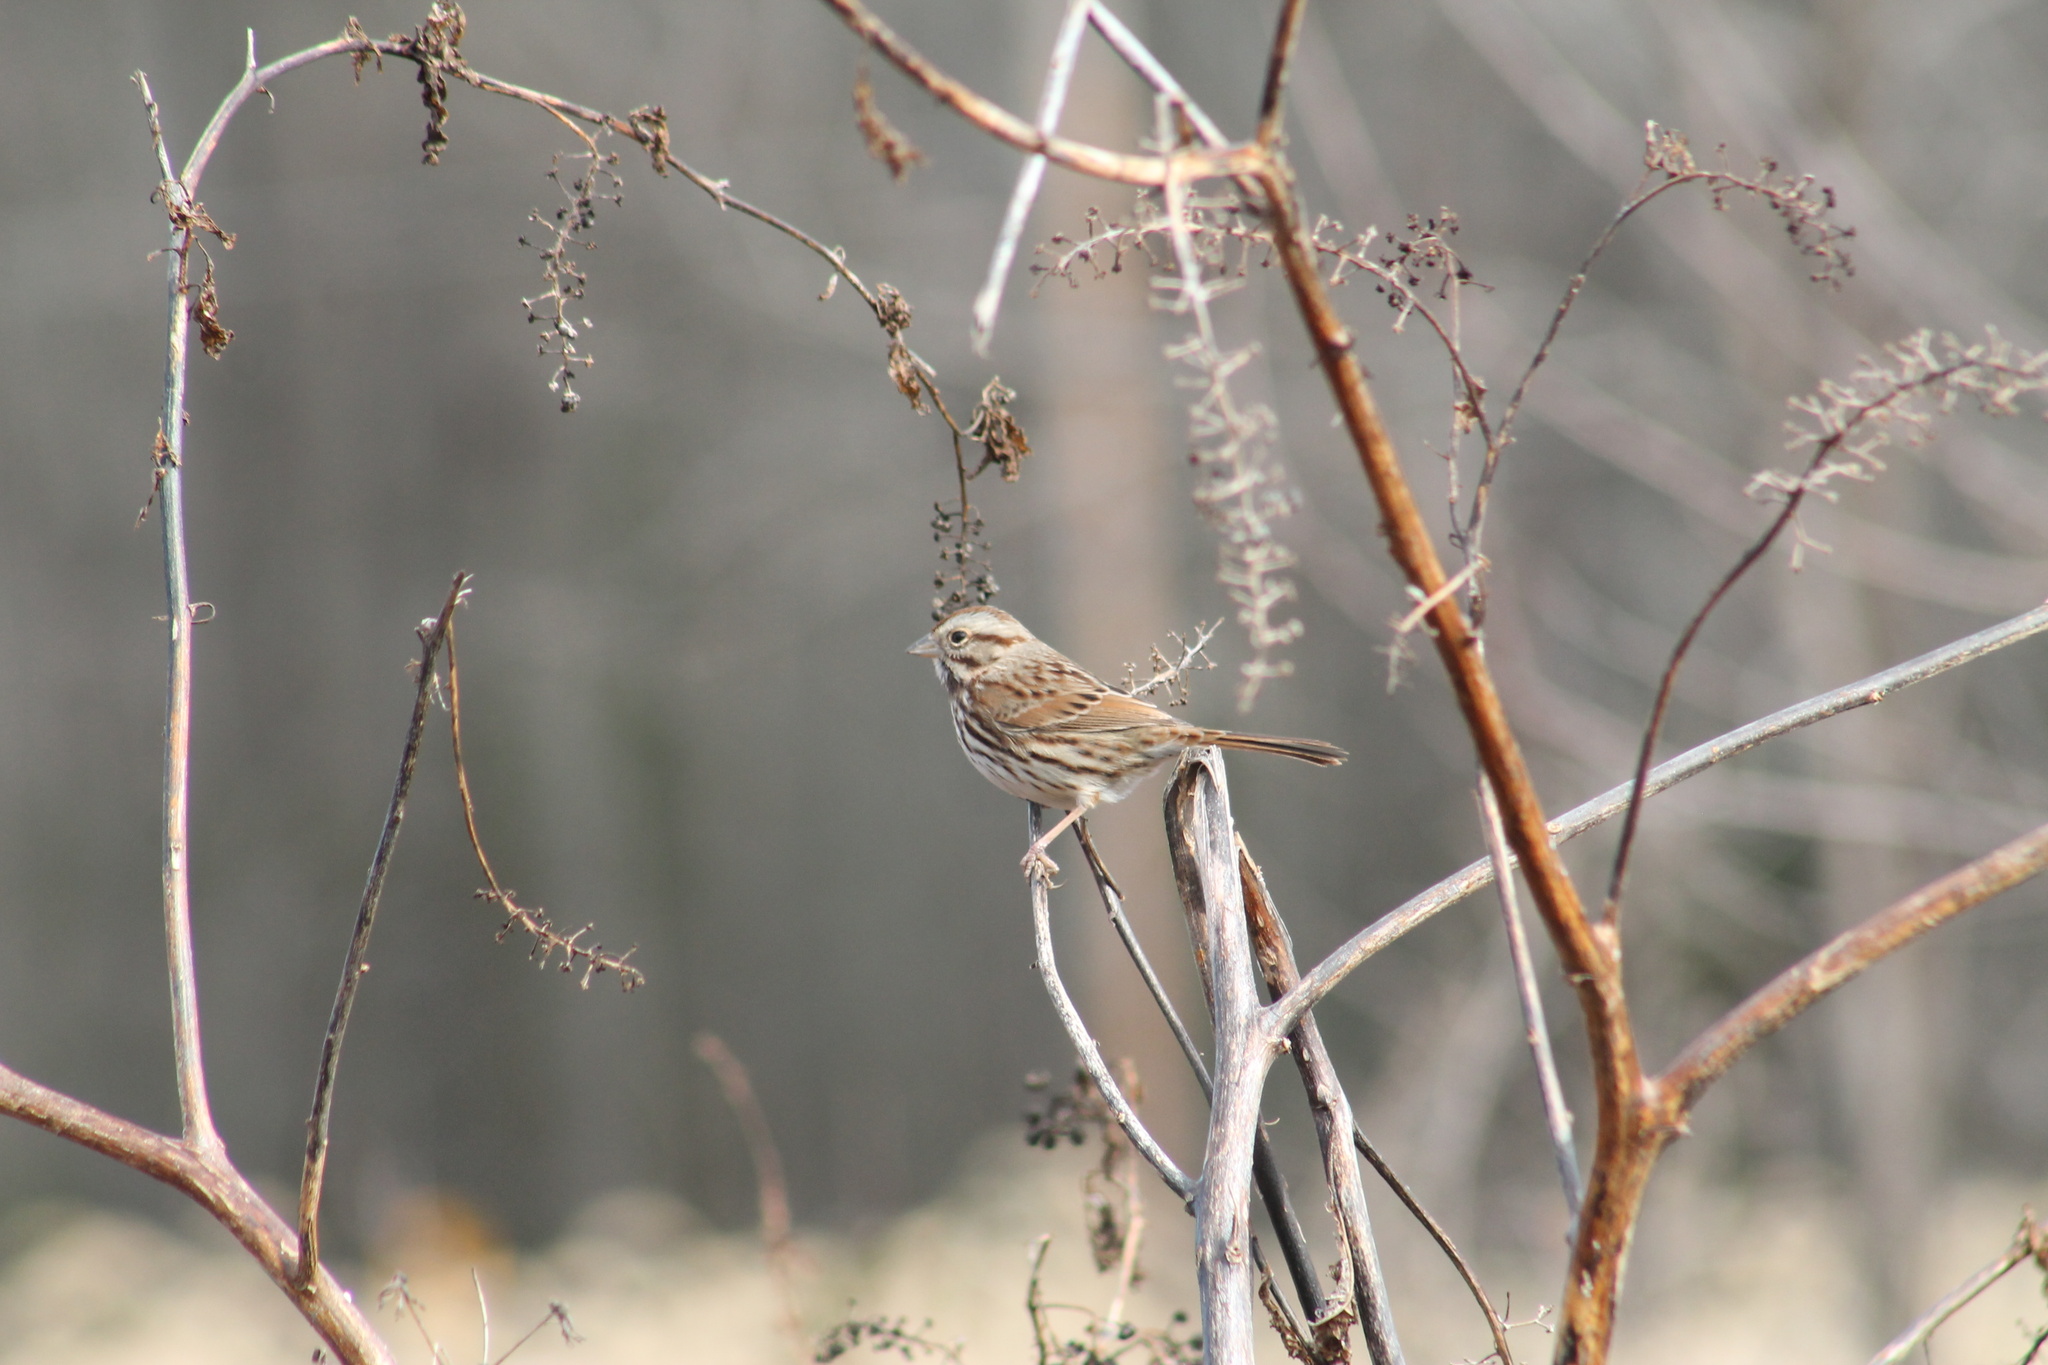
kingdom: Animalia
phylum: Chordata
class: Aves
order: Passeriformes
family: Passerellidae
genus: Melospiza
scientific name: Melospiza melodia
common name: Song sparrow
